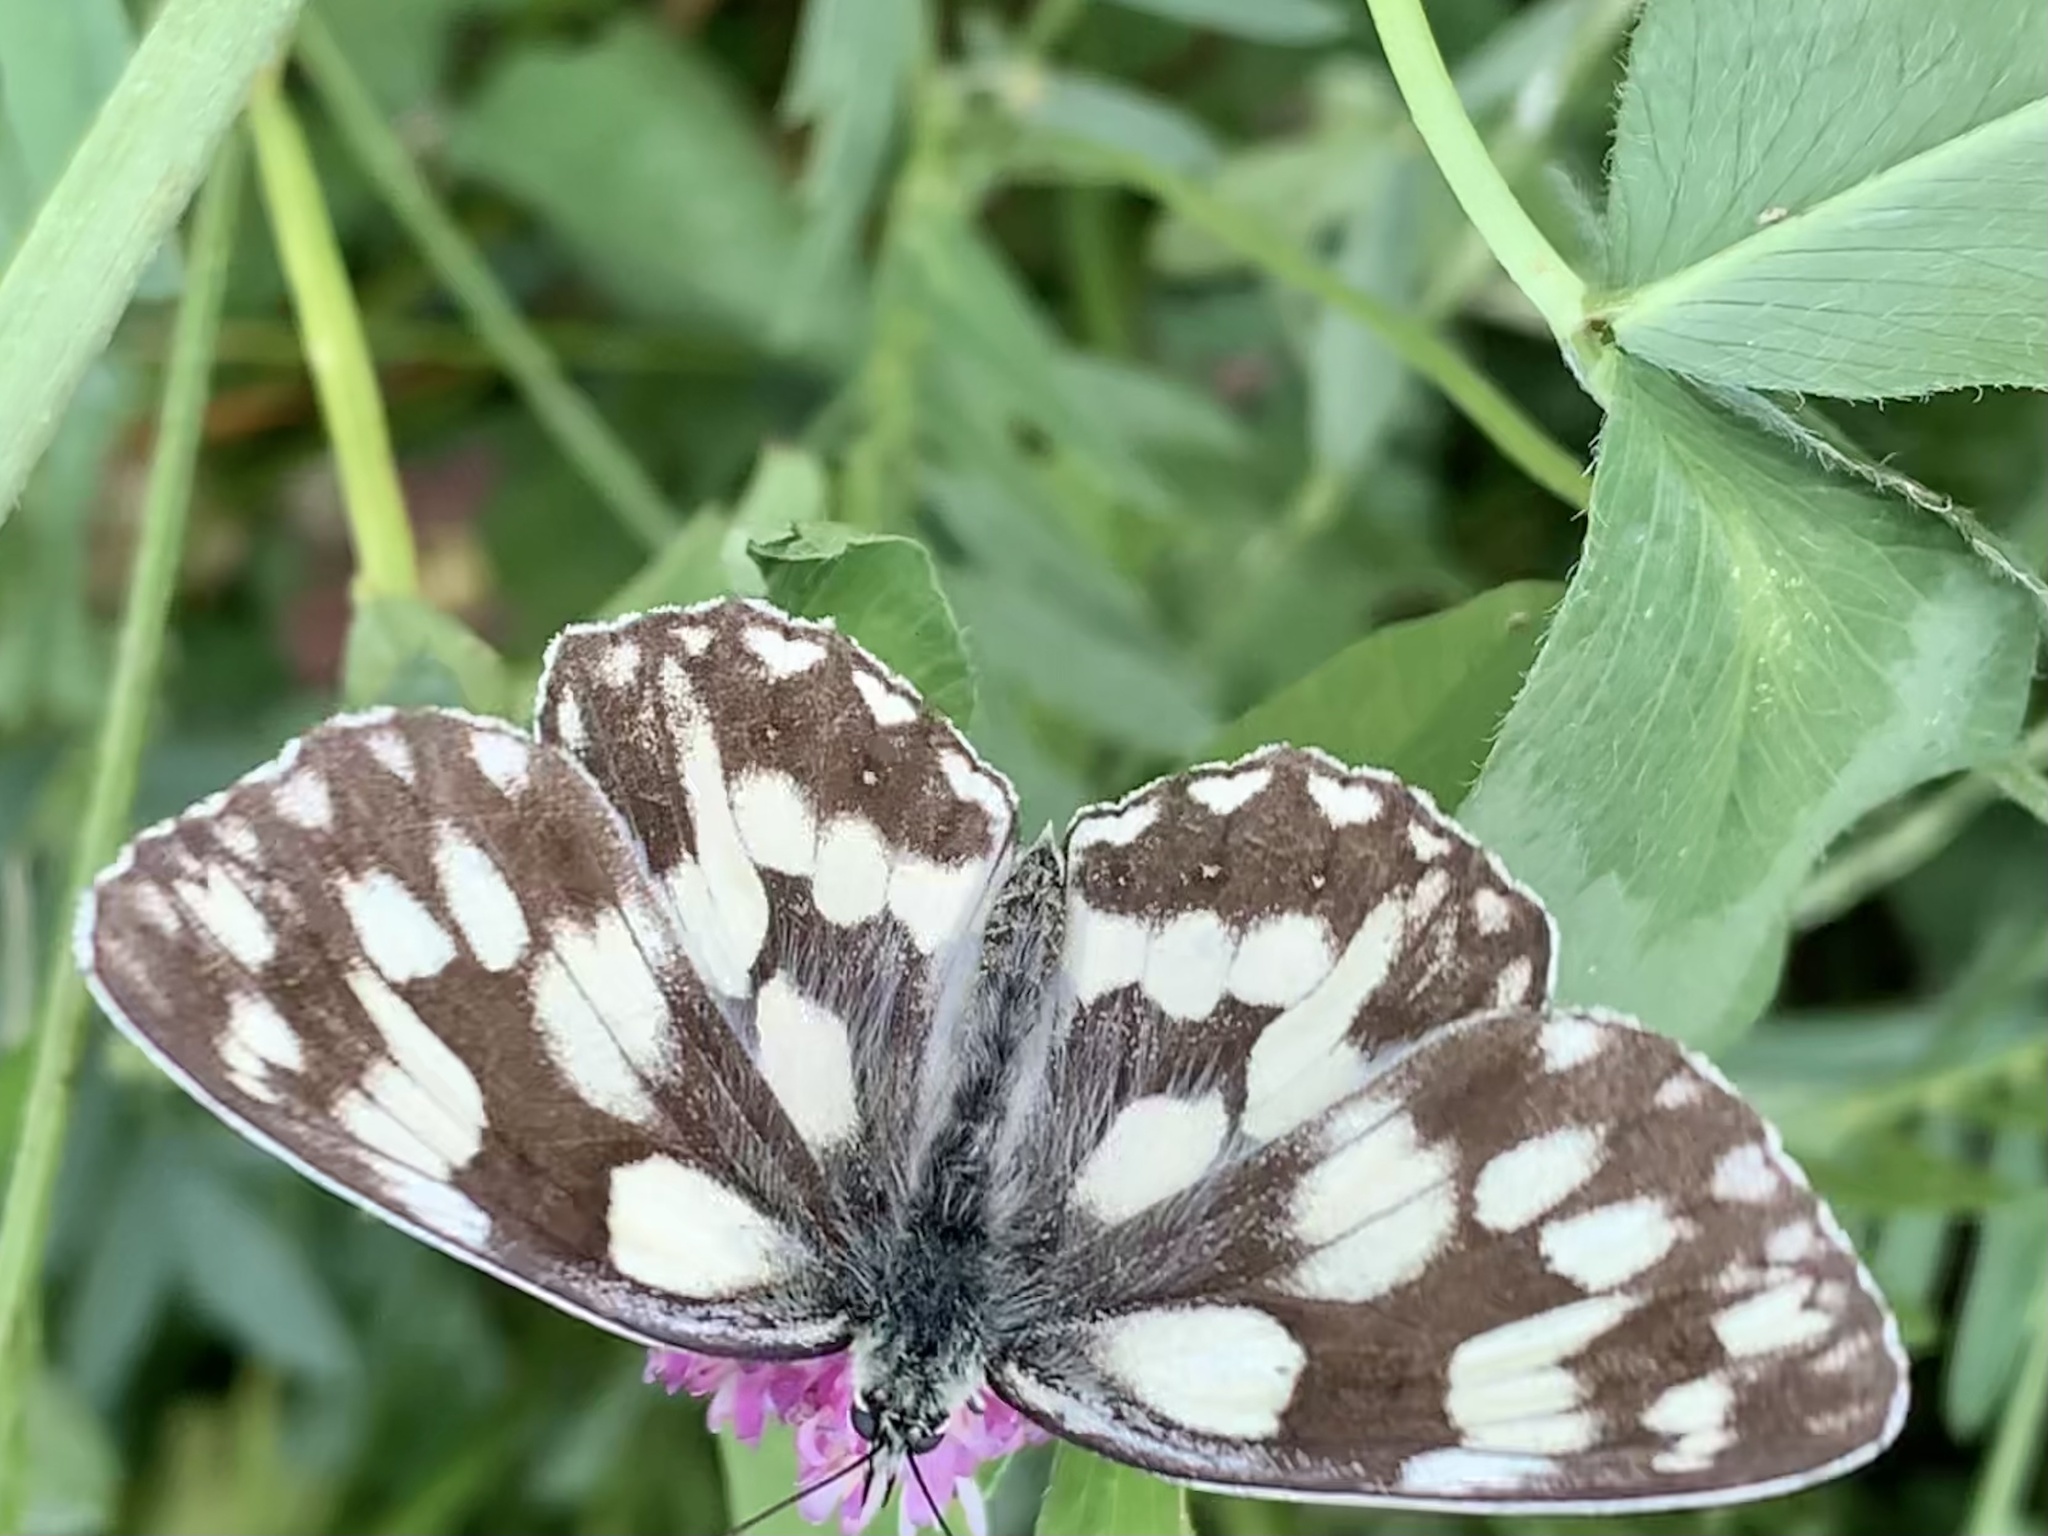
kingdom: Animalia
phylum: Arthropoda
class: Insecta
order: Lepidoptera
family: Nymphalidae
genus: Melanargia
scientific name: Melanargia galathea
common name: Marbled white
